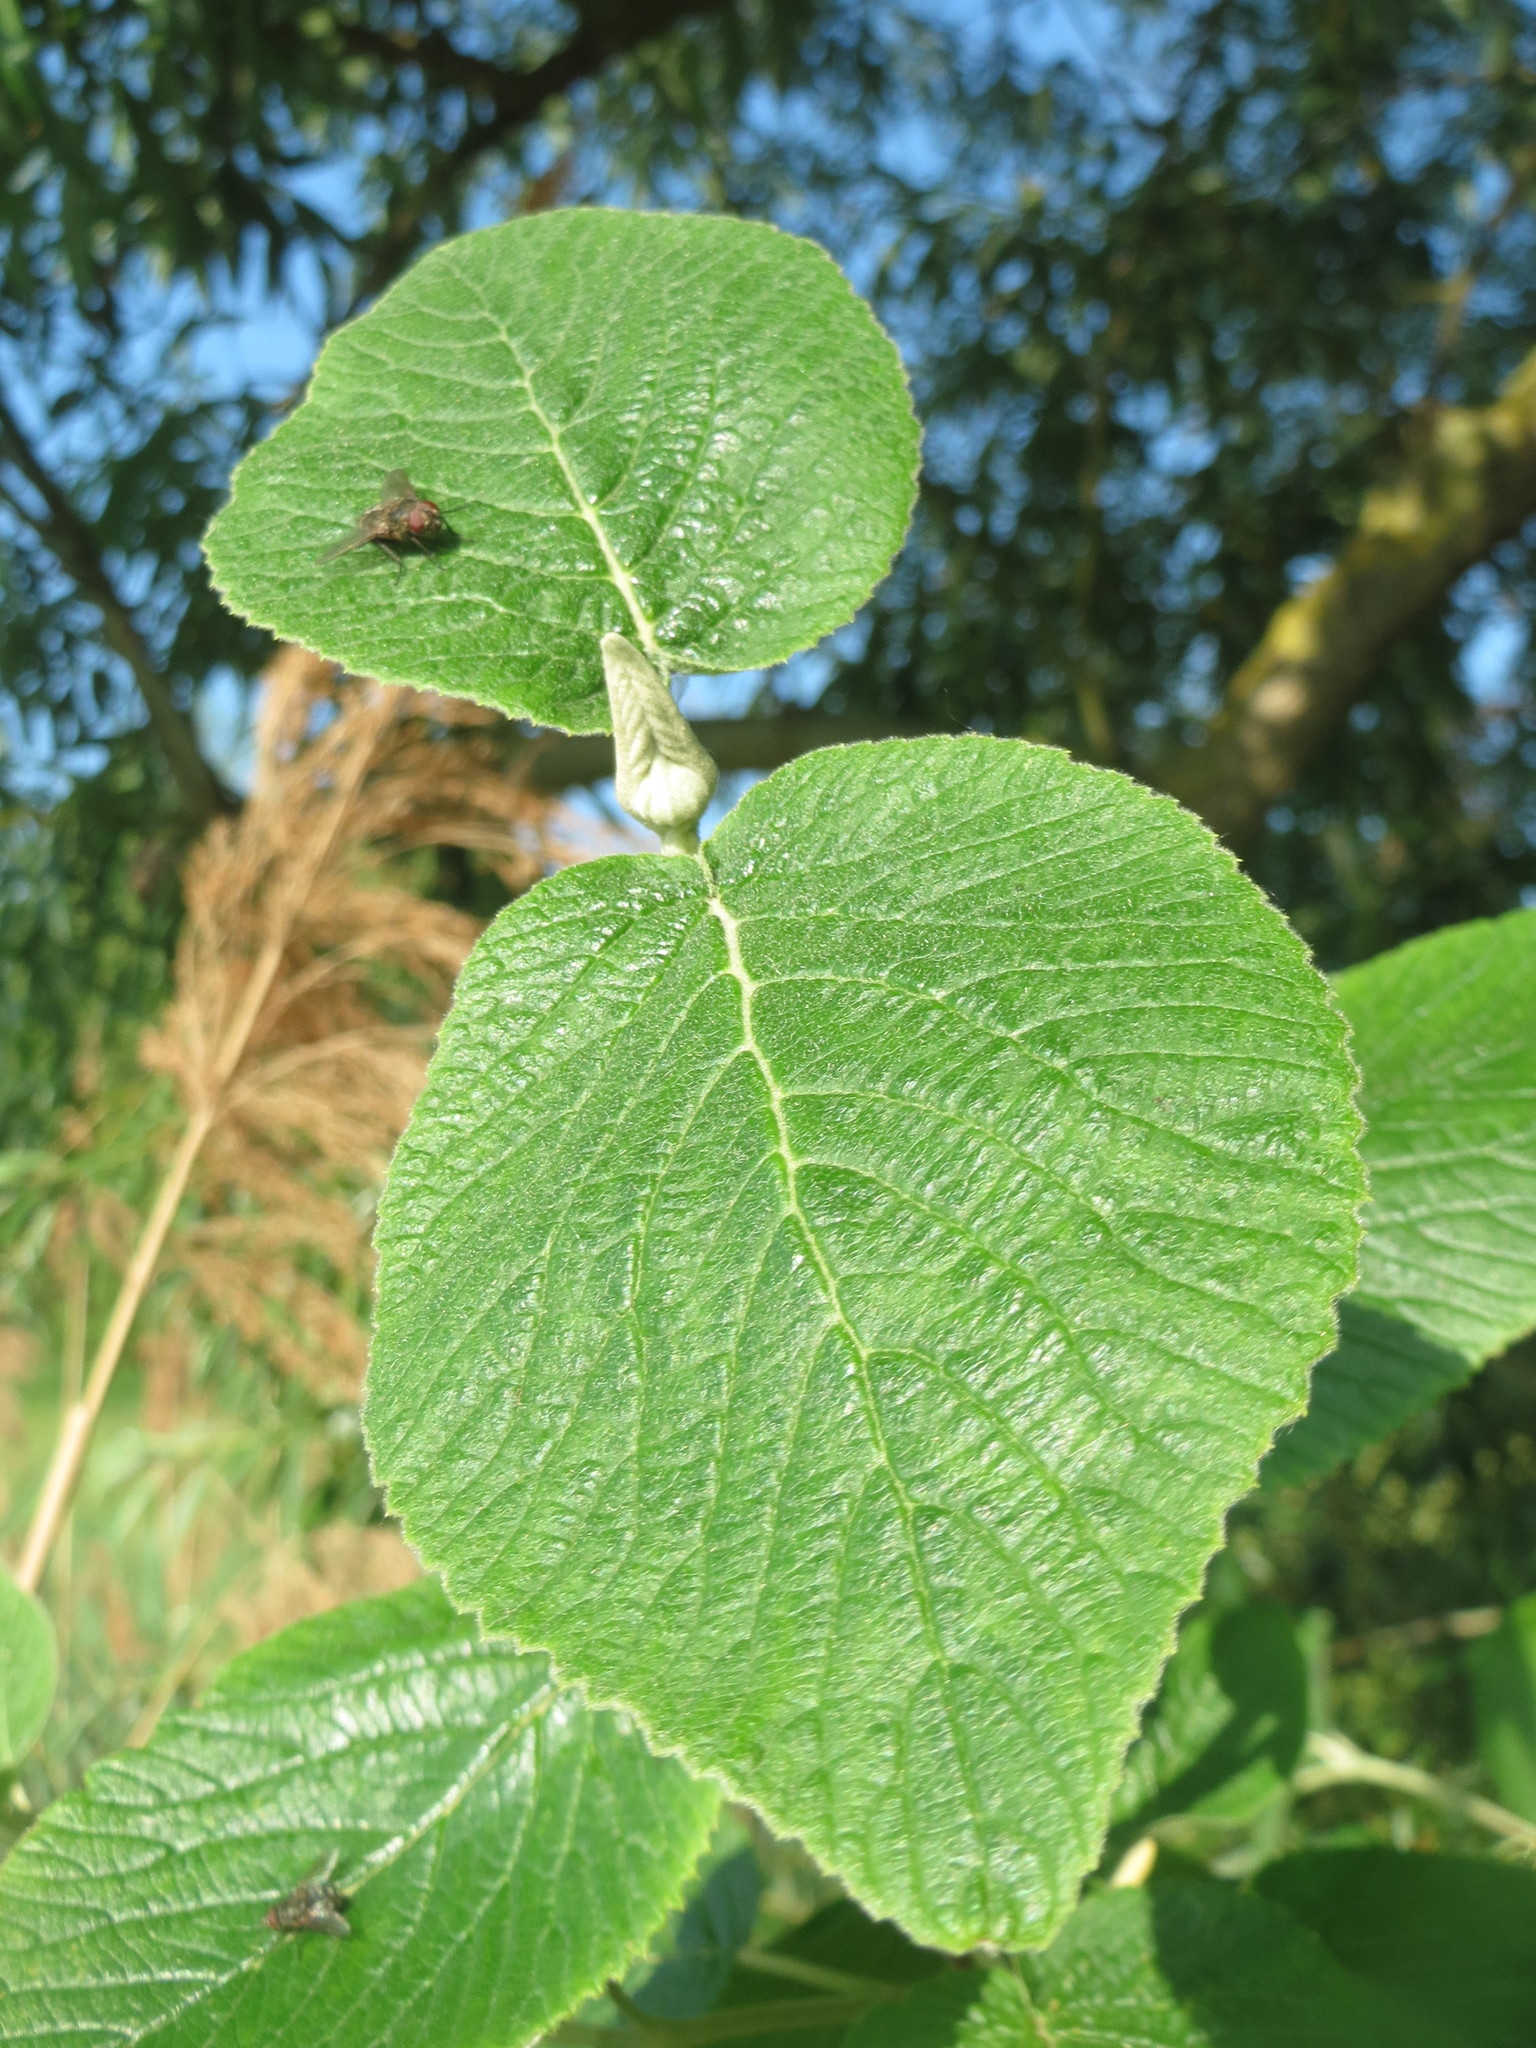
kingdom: Plantae
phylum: Tracheophyta
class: Magnoliopsida
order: Dipsacales
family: Viburnaceae
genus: Viburnum
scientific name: Viburnum lantana
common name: Wayfaring tree
